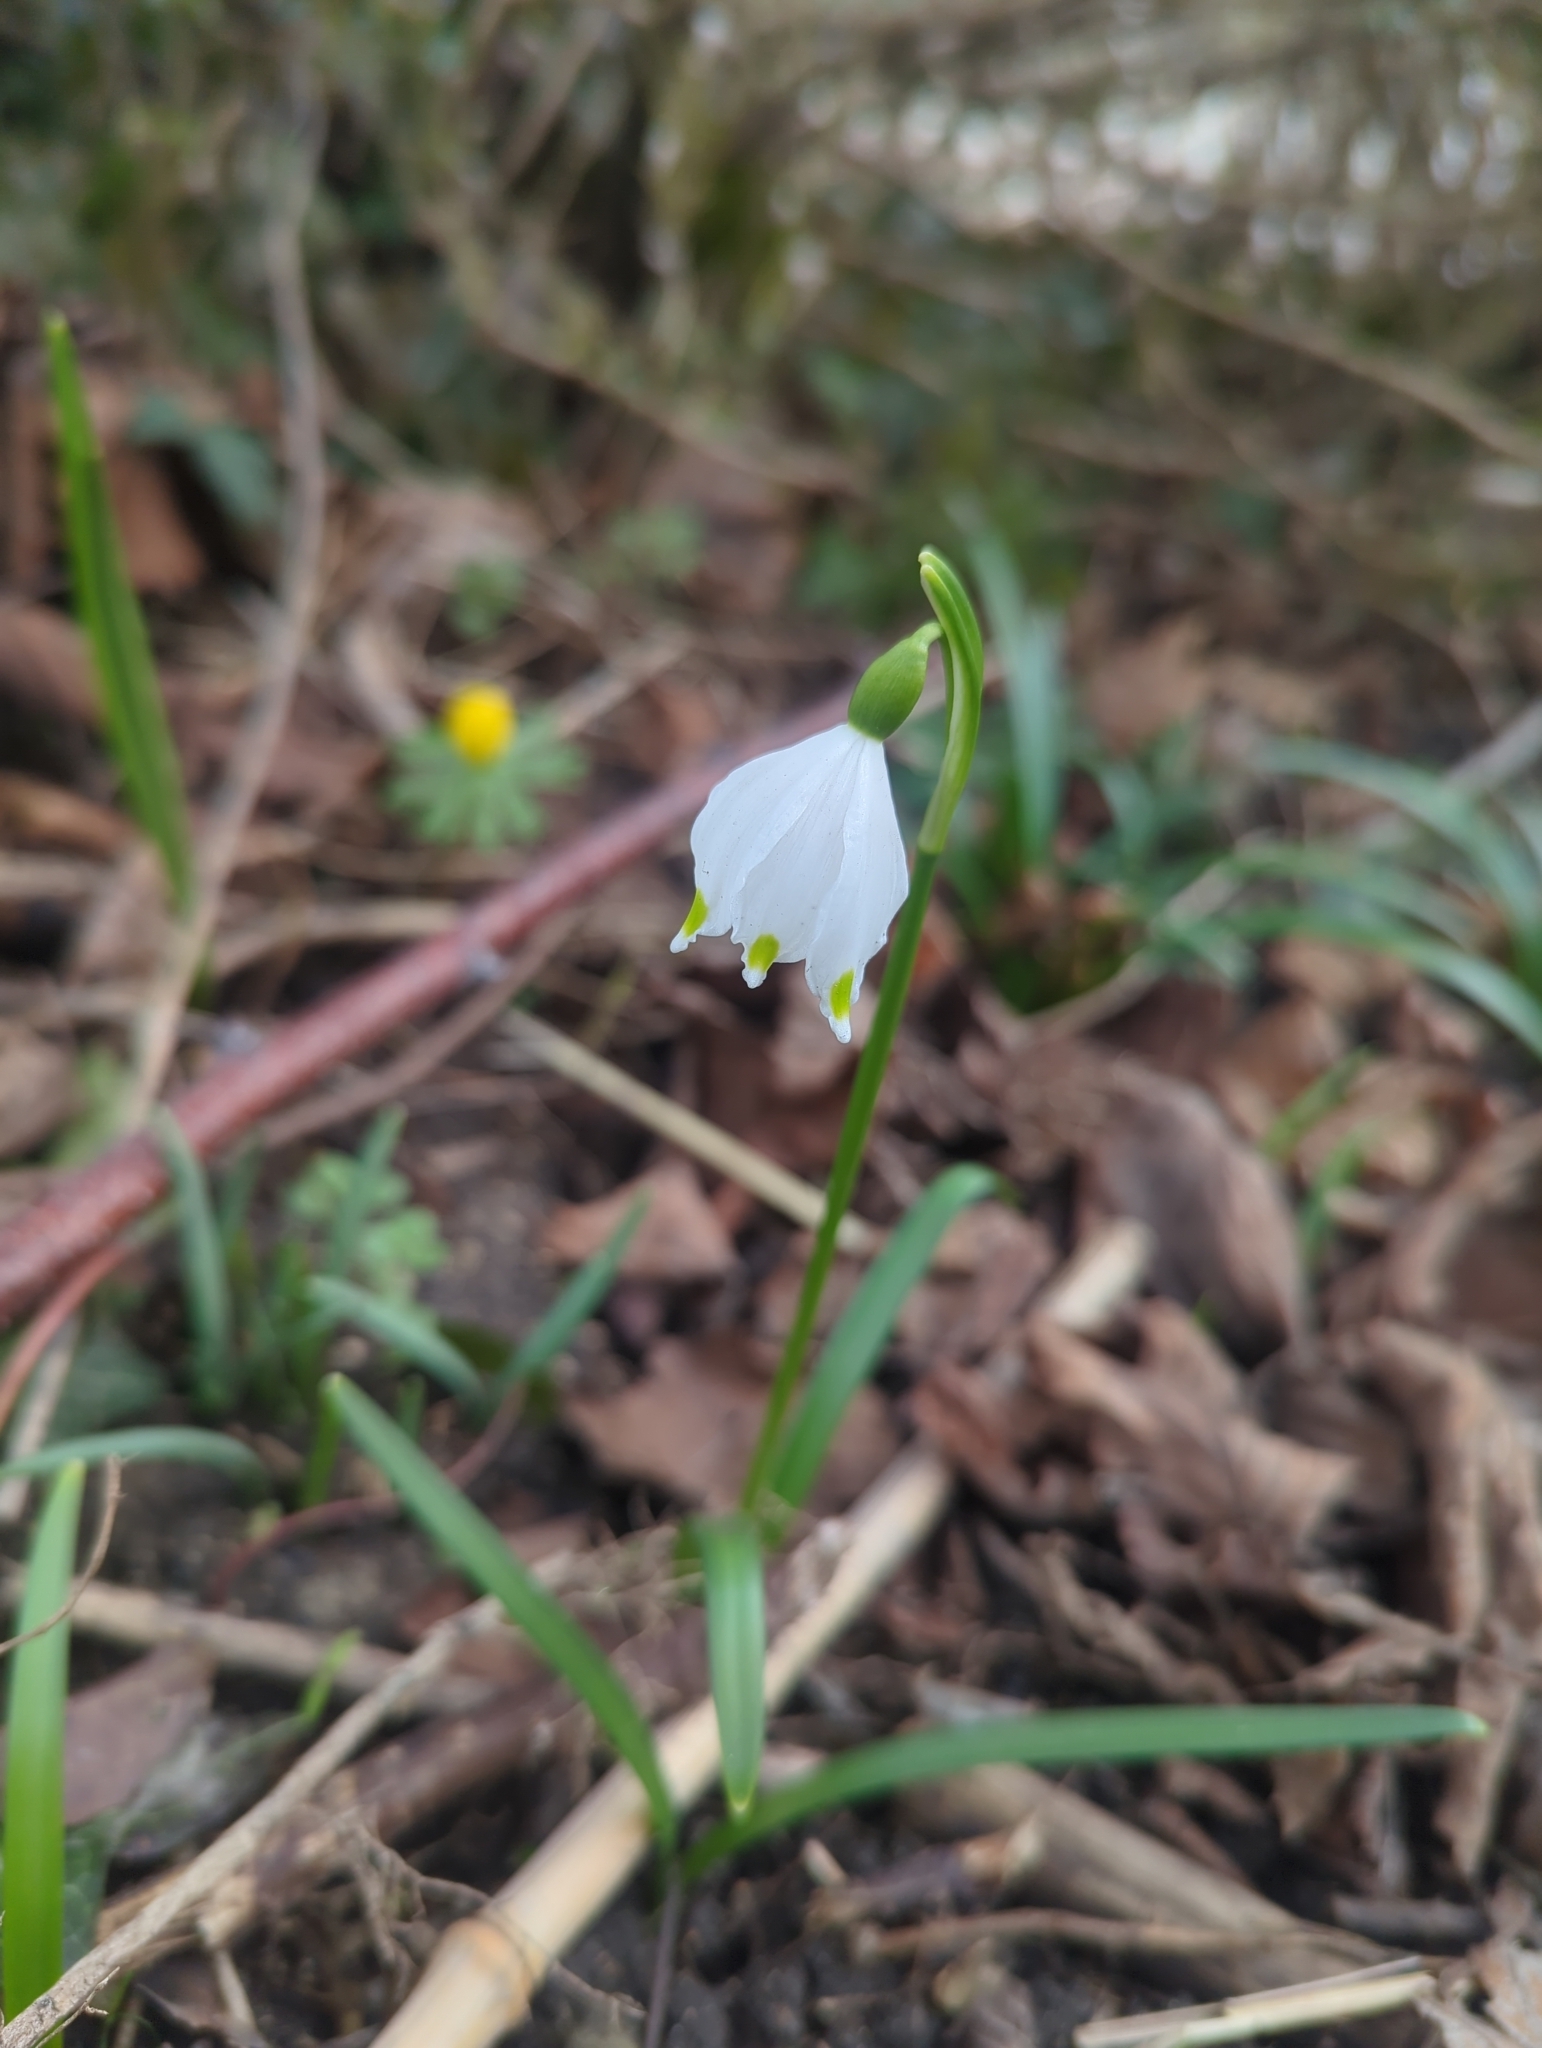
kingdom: Plantae
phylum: Tracheophyta
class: Liliopsida
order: Asparagales
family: Amaryllidaceae
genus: Leucojum
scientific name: Leucojum vernum
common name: Spring snowflake
